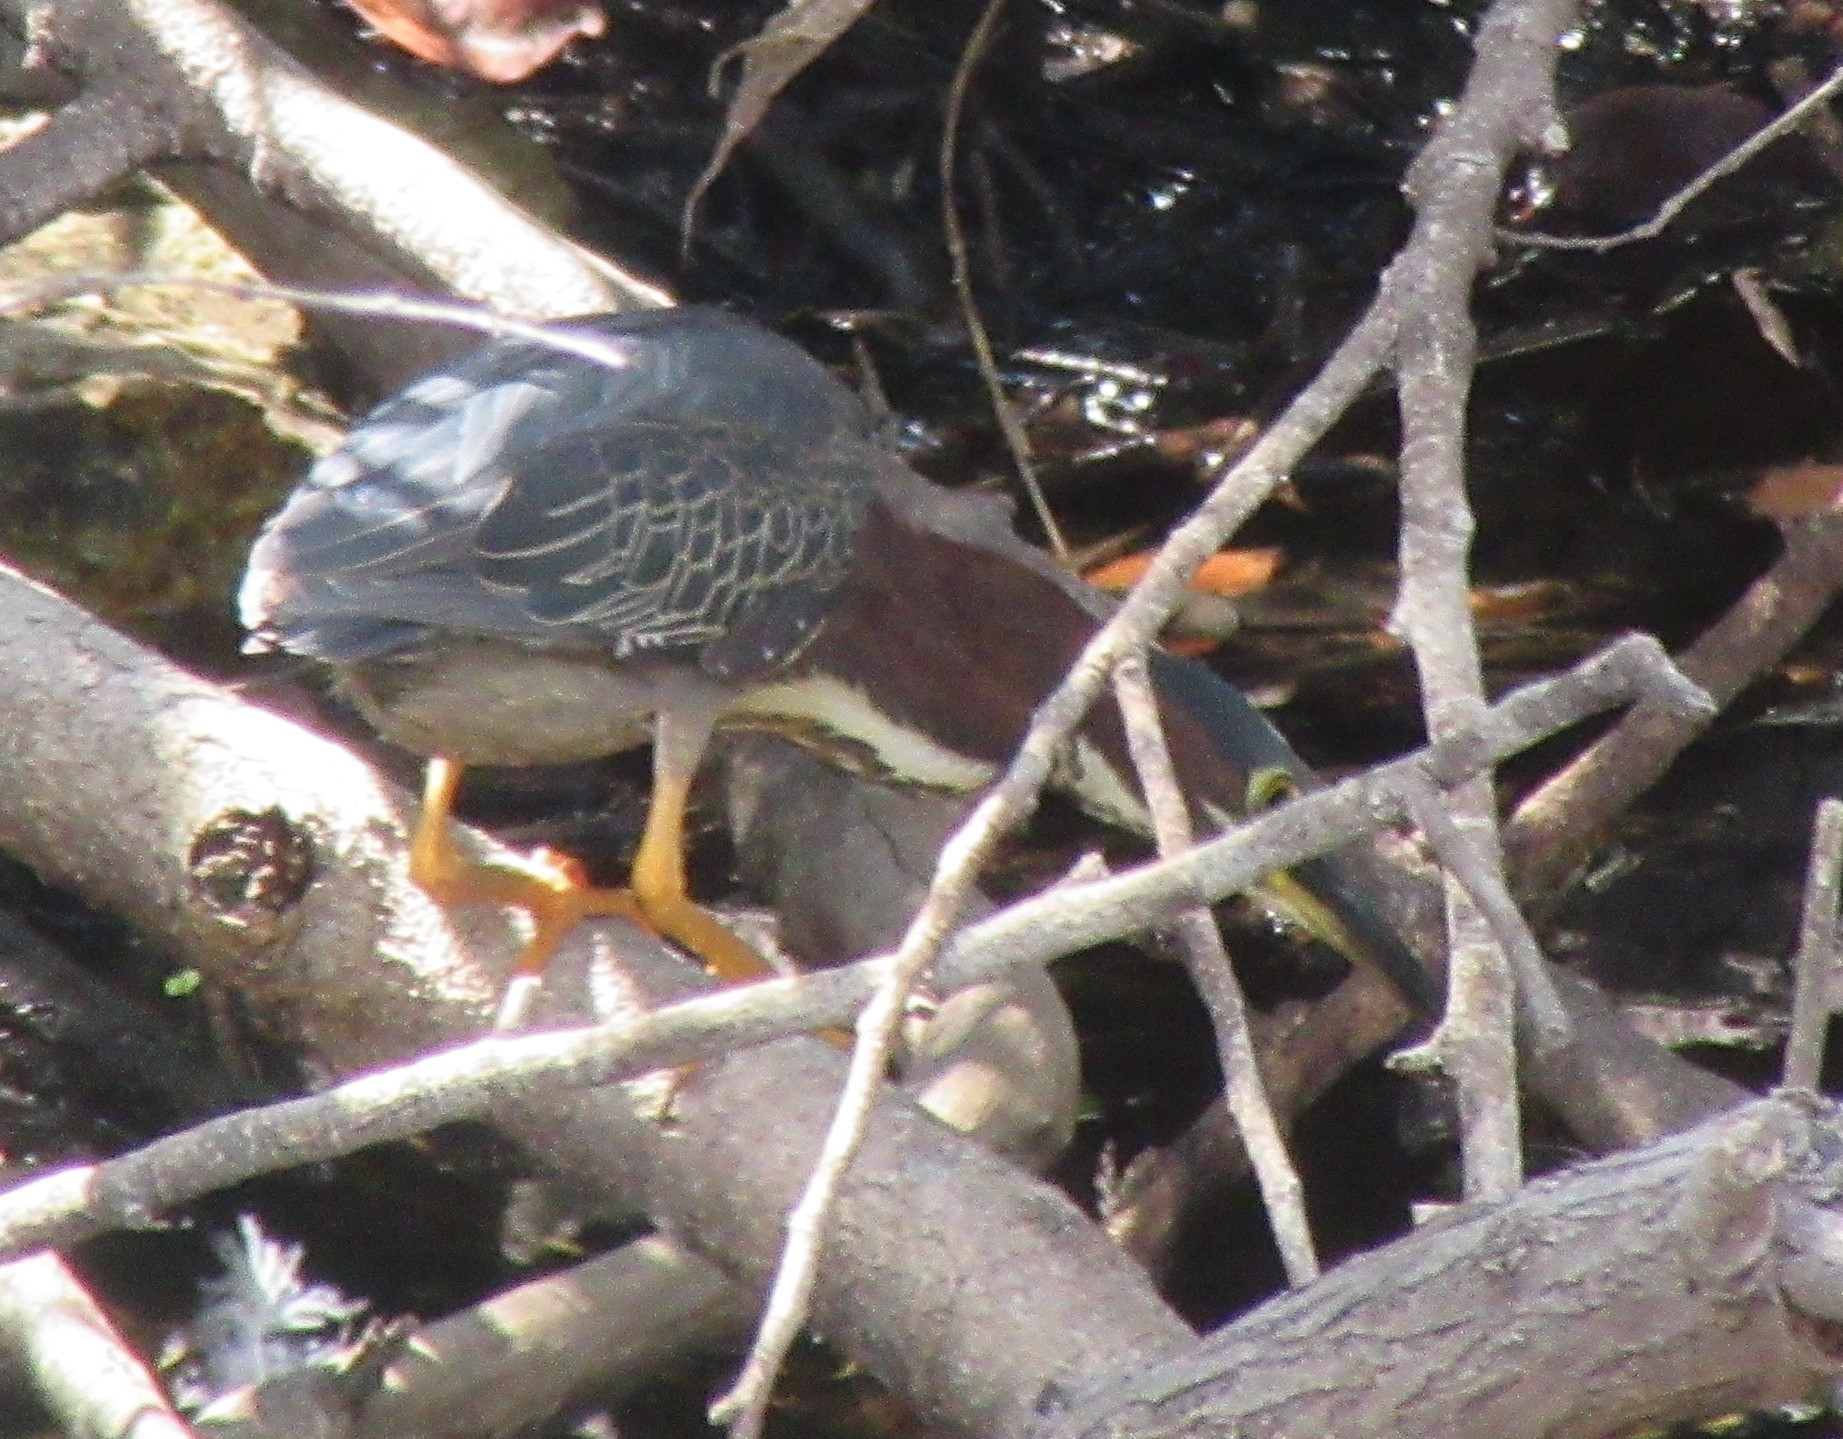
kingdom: Animalia
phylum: Chordata
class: Aves
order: Pelecaniformes
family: Ardeidae
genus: Butorides
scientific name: Butorides virescens
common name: Green heron
